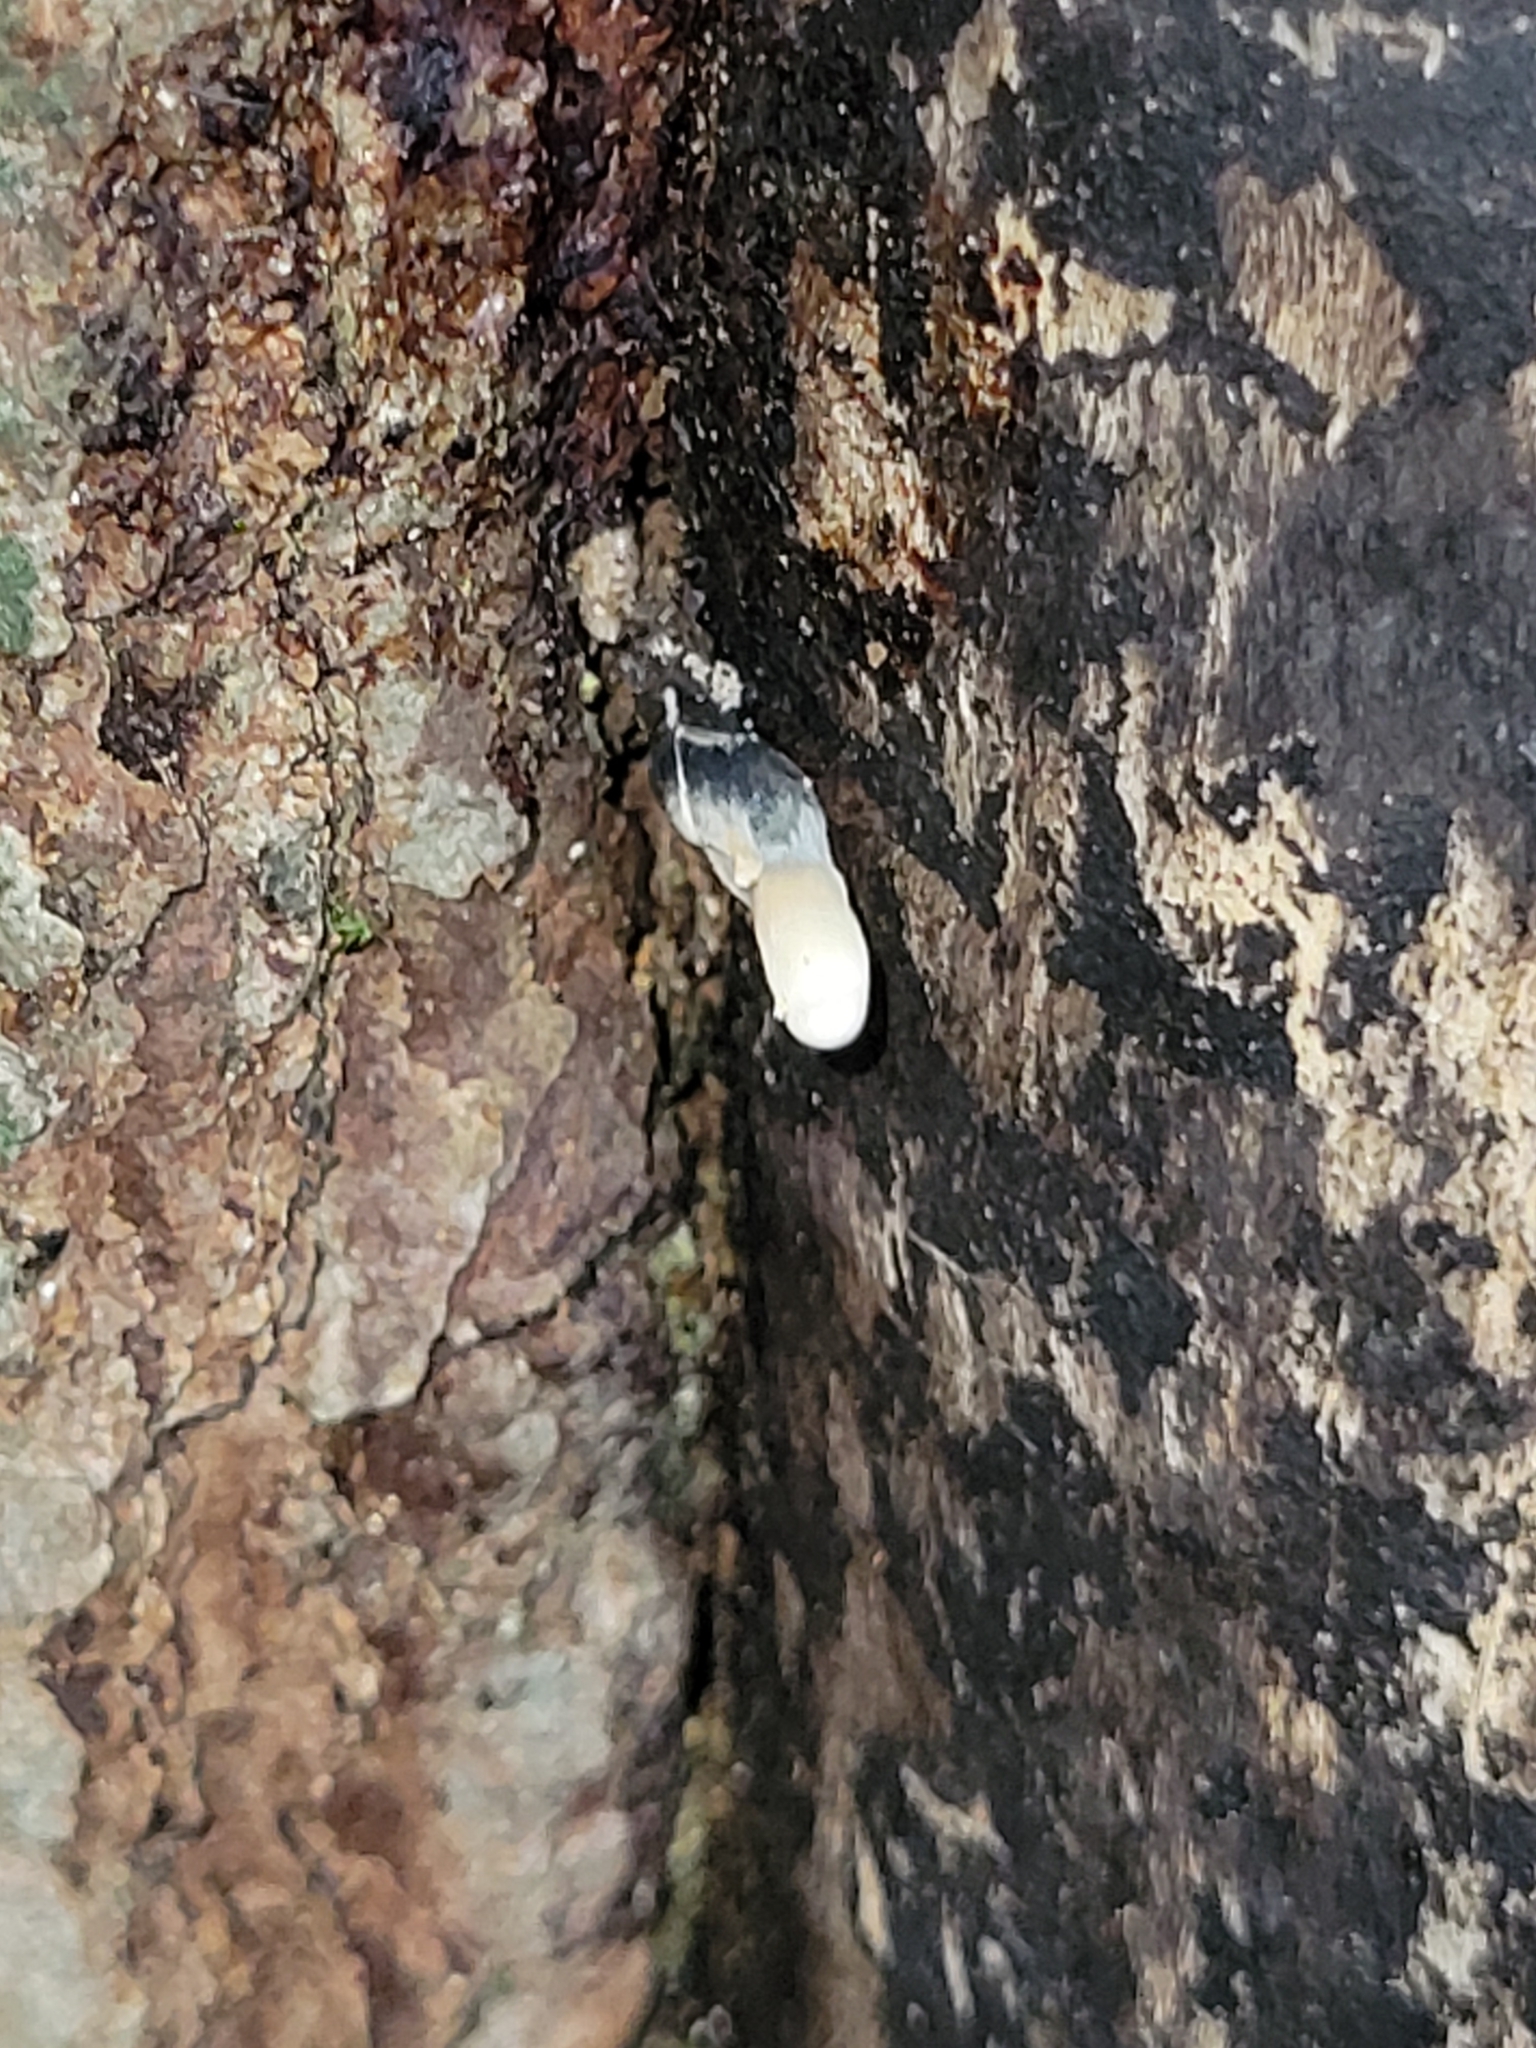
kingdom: Fungi
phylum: Ascomycota
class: Sordariomycetes
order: Xylariales
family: Xylariaceae
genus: Xylaria
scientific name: Xylaria polymorpha
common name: Dead man's fingers
